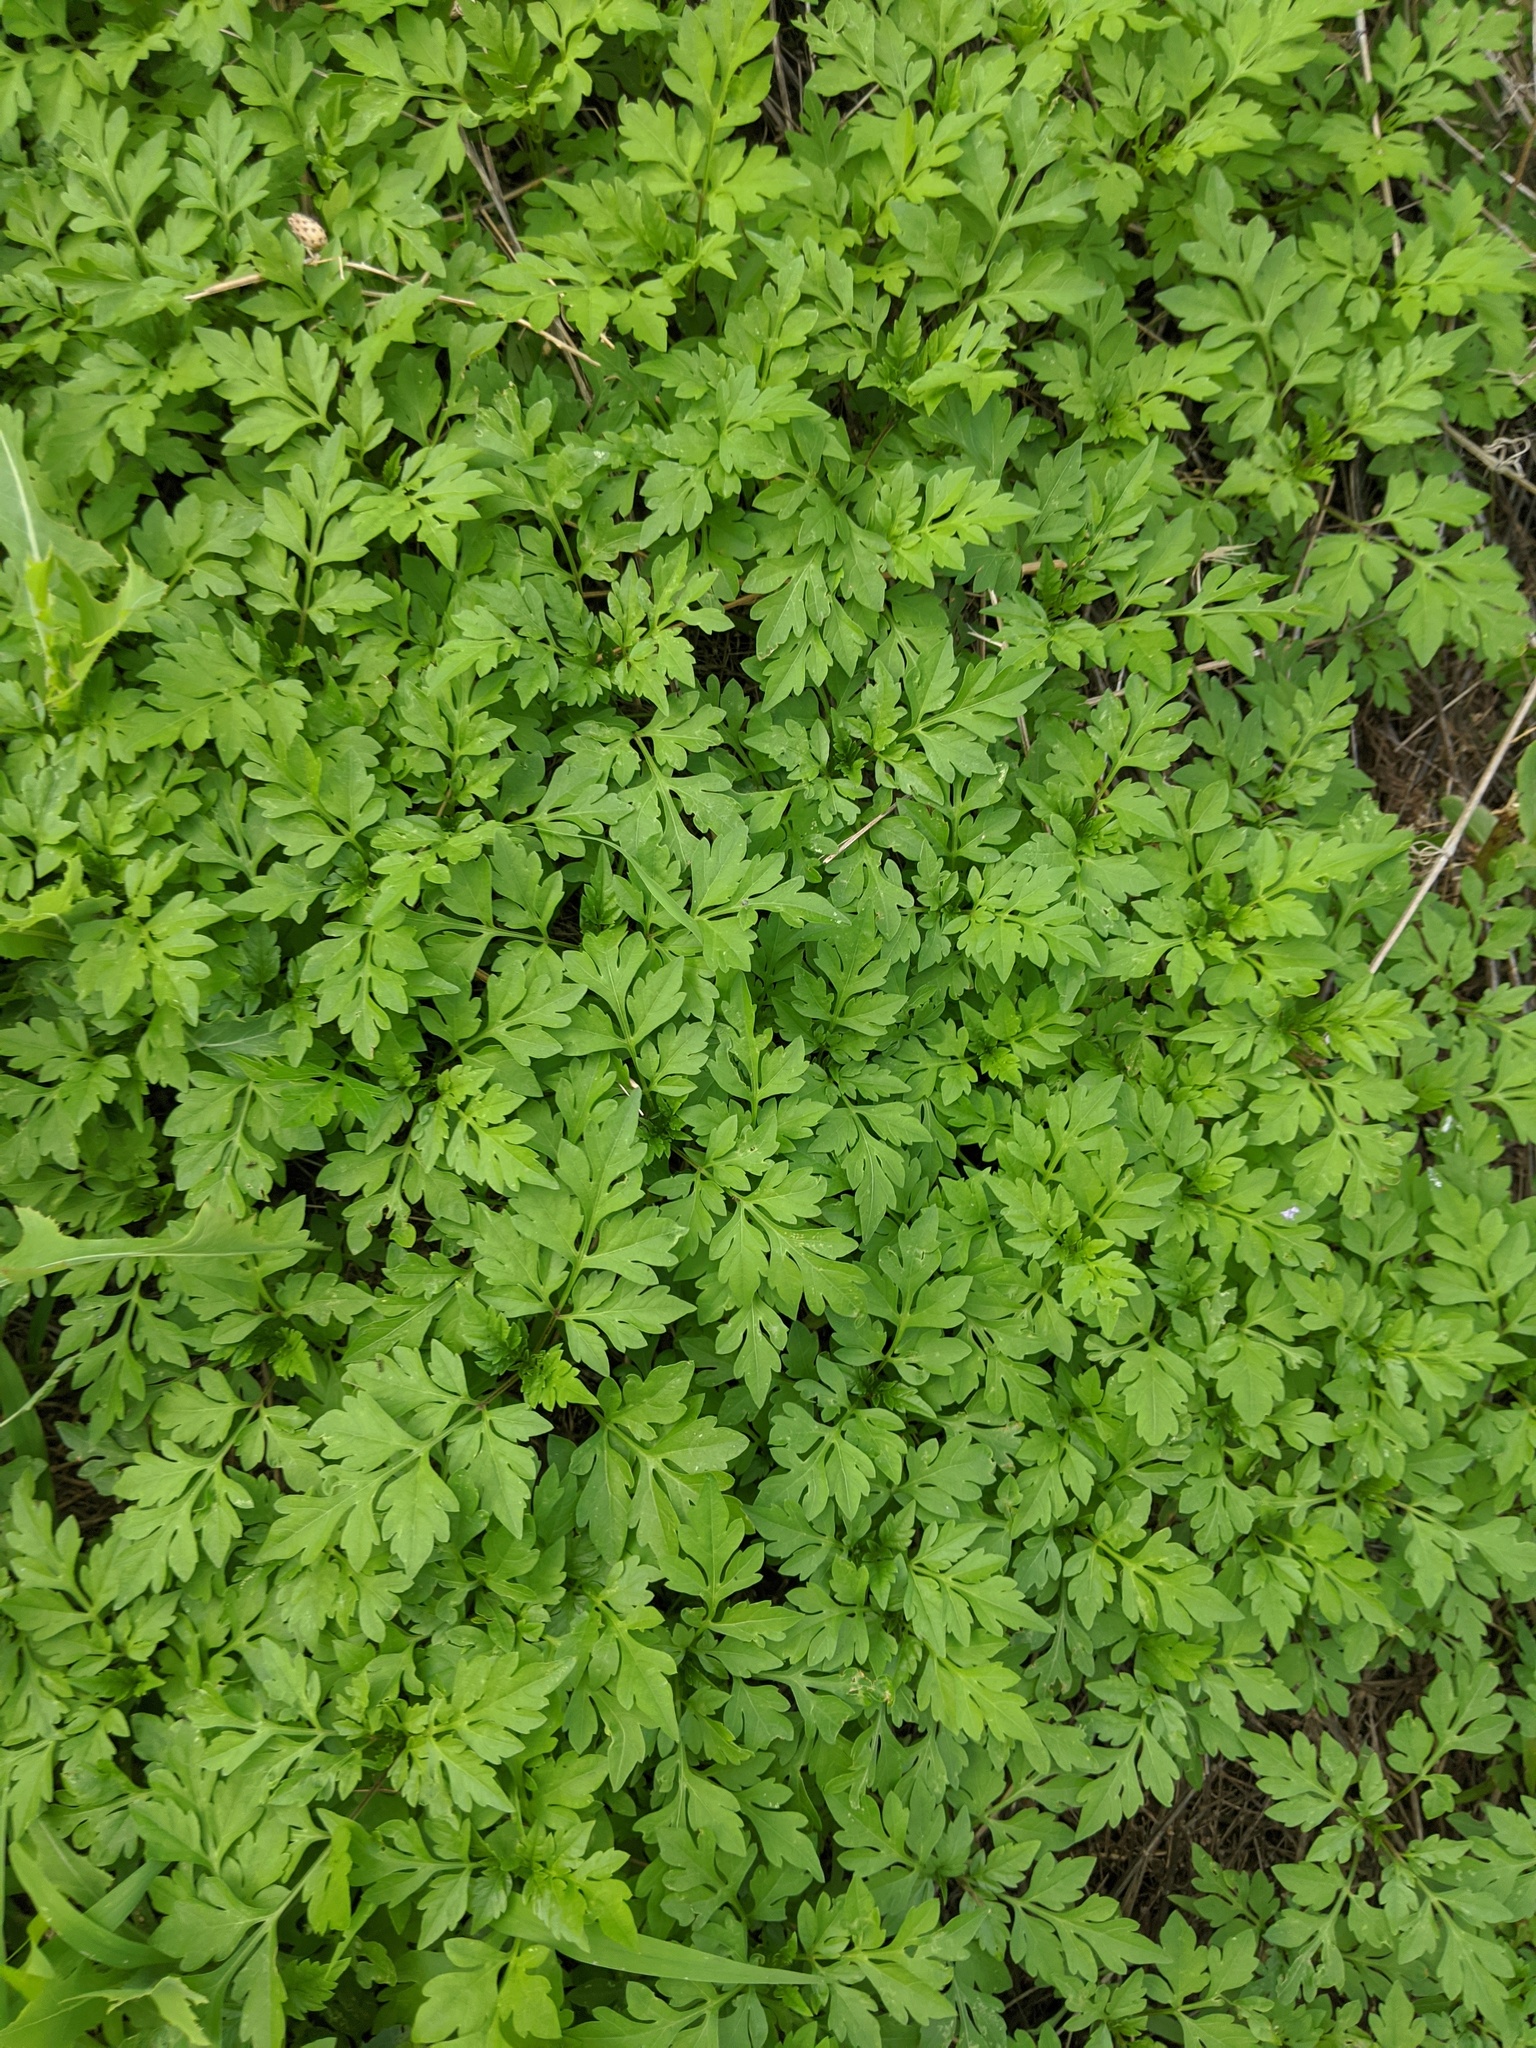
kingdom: Plantae
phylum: Tracheophyta
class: Magnoliopsida
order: Asterales
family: Asteraceae
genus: Artemisia
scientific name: Artemisia vulgaris
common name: Mugwort
